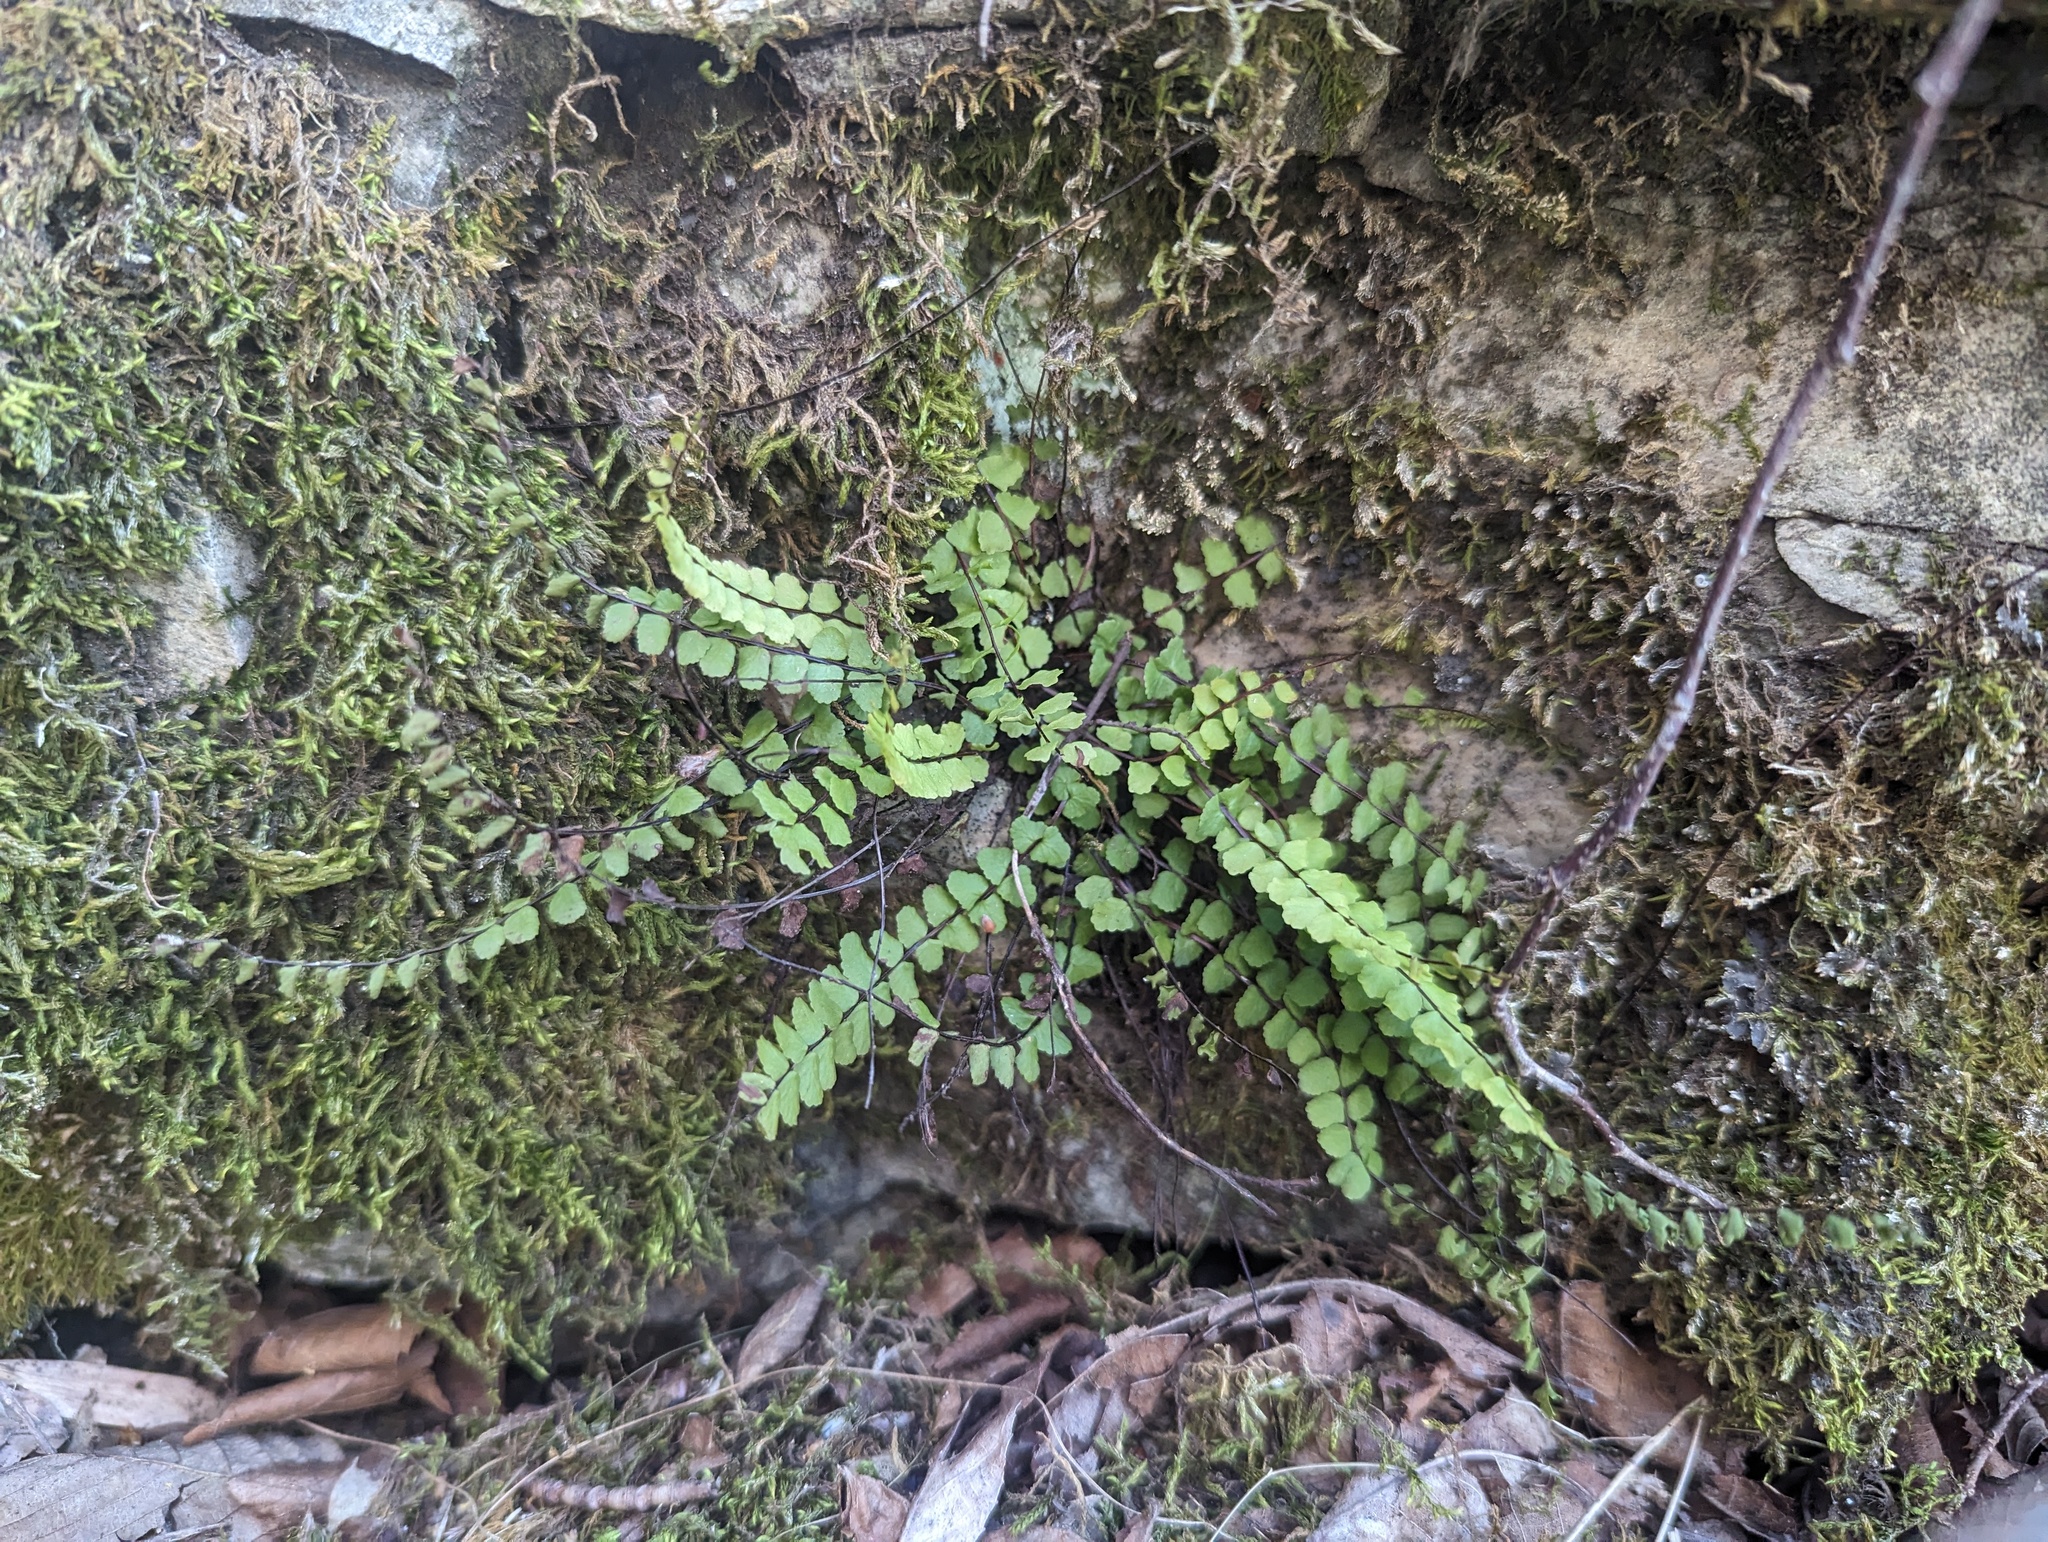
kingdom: Plantae
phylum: Tracheophyta
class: Polypodiopsida
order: Polypodiales
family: Aspleniaceae
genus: Asplenium
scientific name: Asplenium quadrivalens
